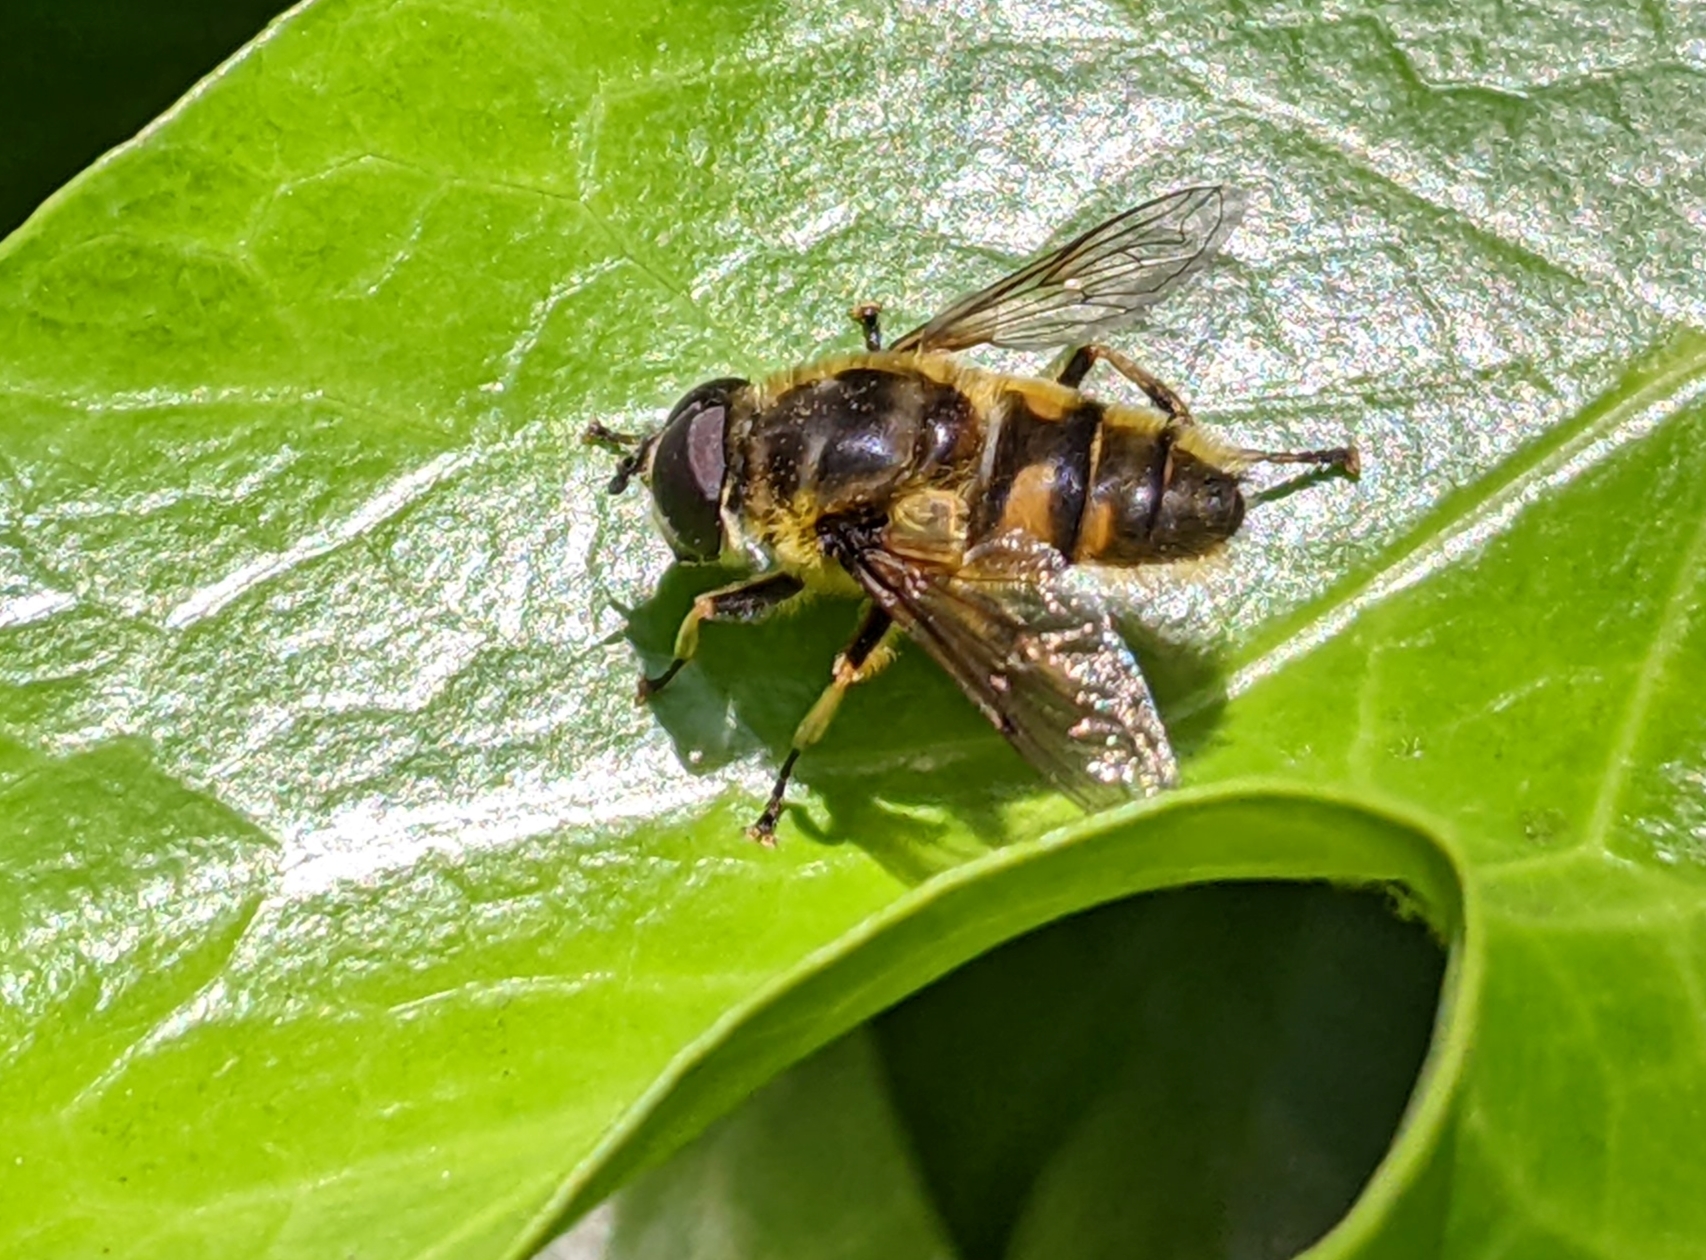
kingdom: Animalia
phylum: Arthropoda
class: Insecta
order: Diptera
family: Syrphidae
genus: Myathropa
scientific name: Myathropa florea
